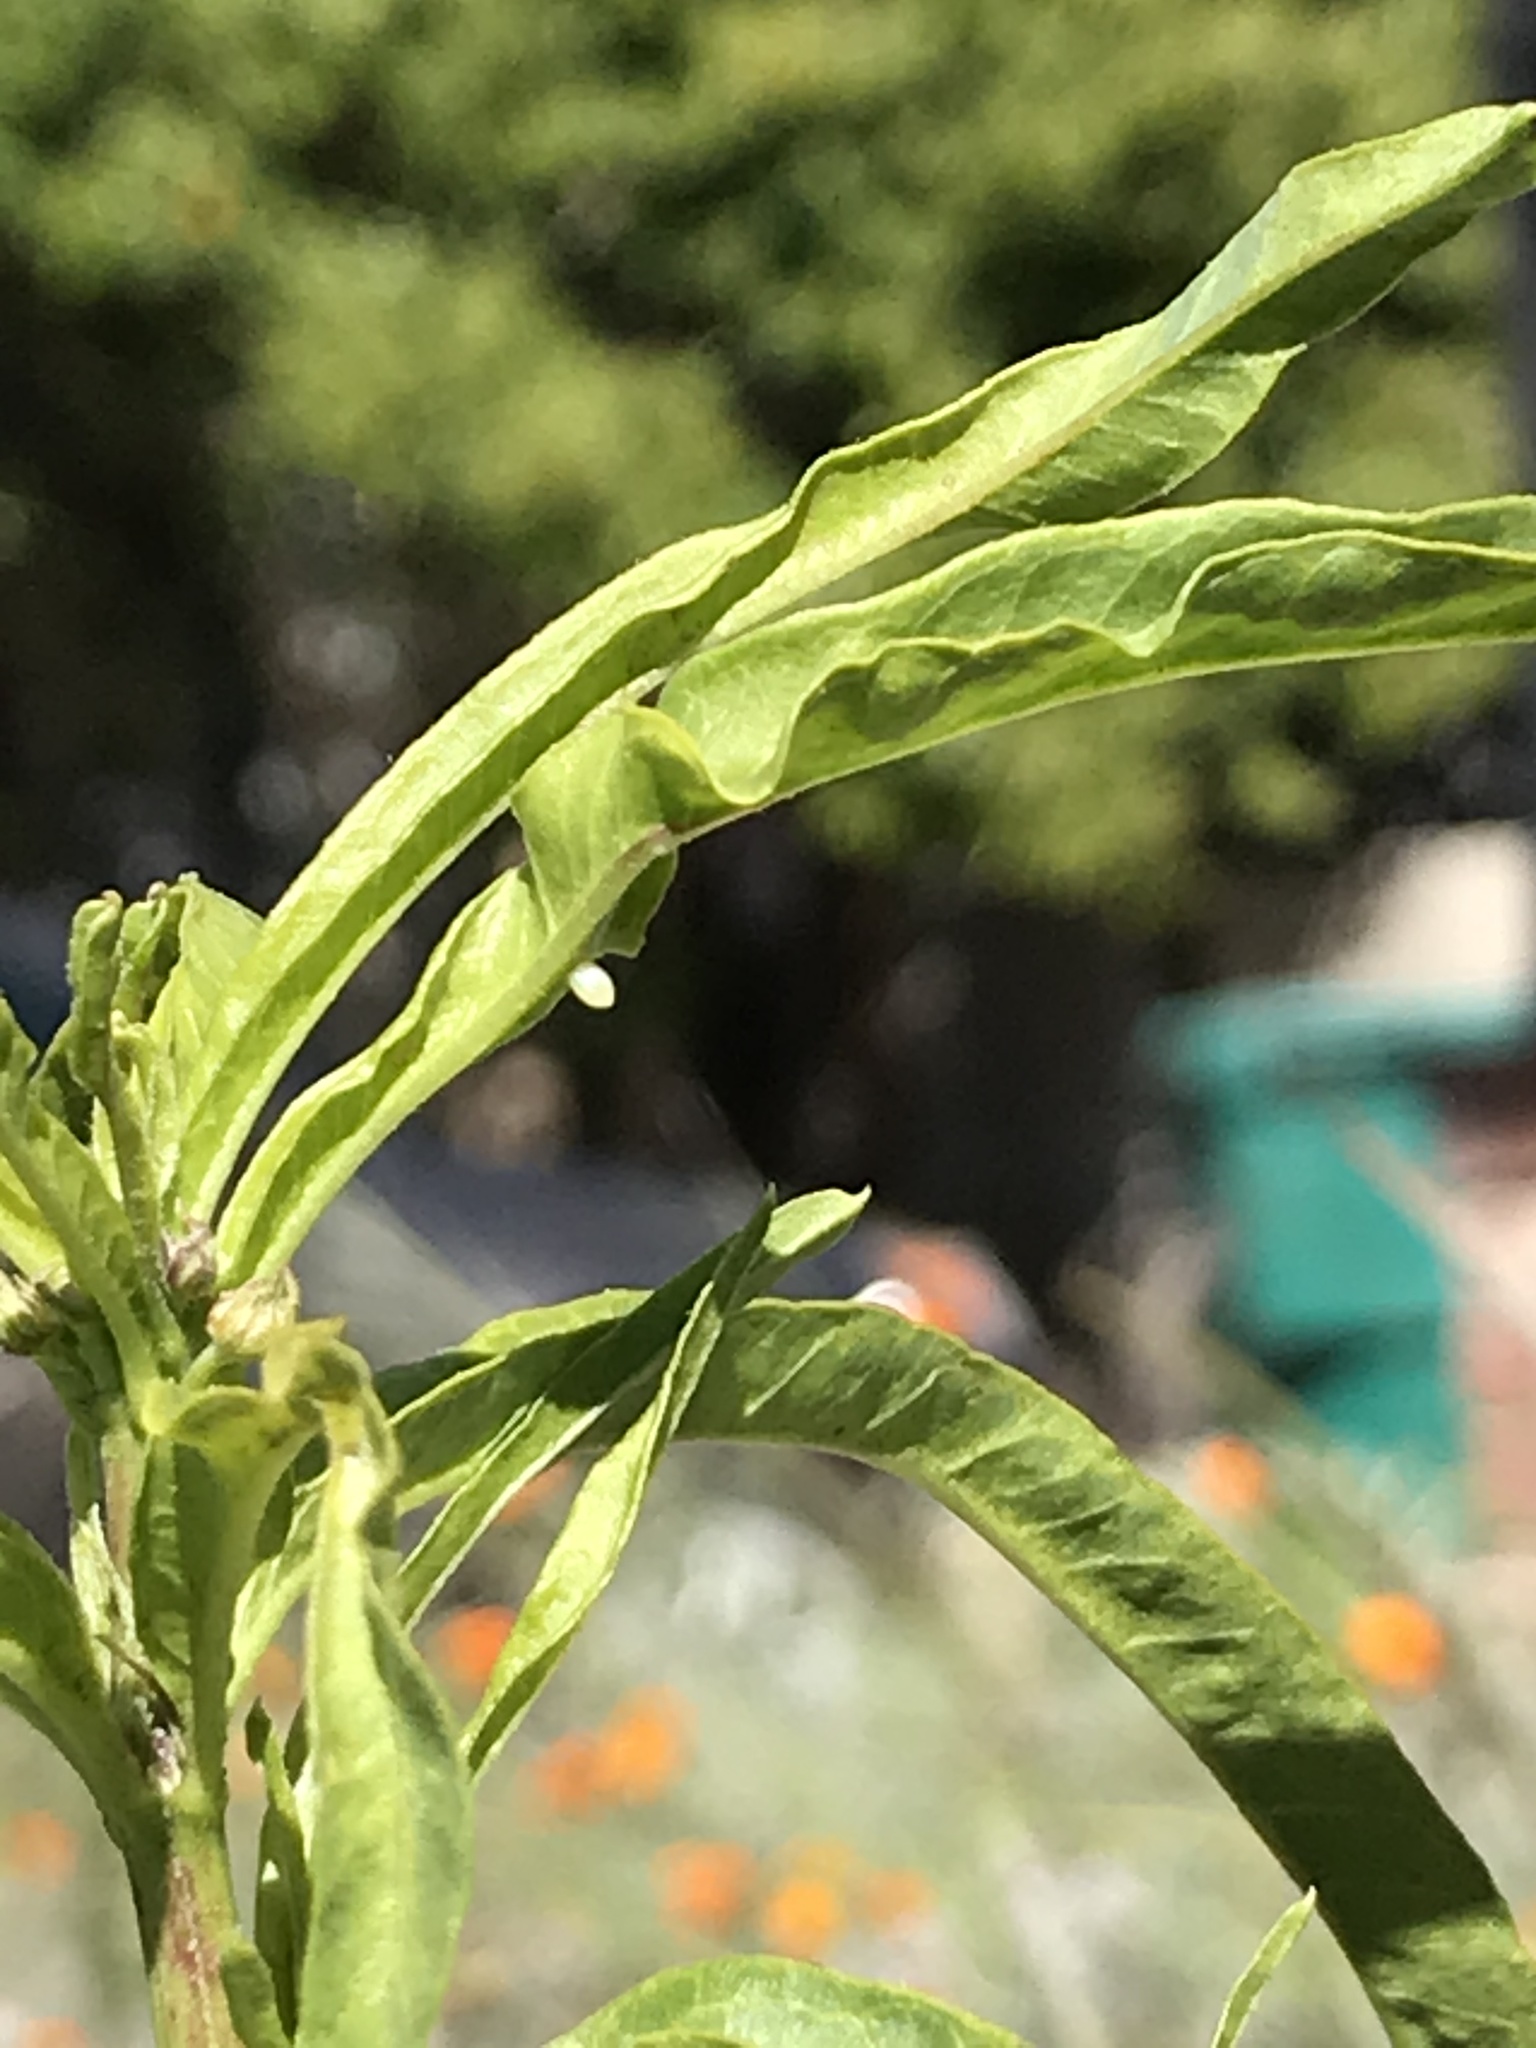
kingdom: Animalia
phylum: Arthropoda
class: Insecta
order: Lepidoptera
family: Nymphalidae
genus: Danaus
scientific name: Danaus plexippus
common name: Monarch
